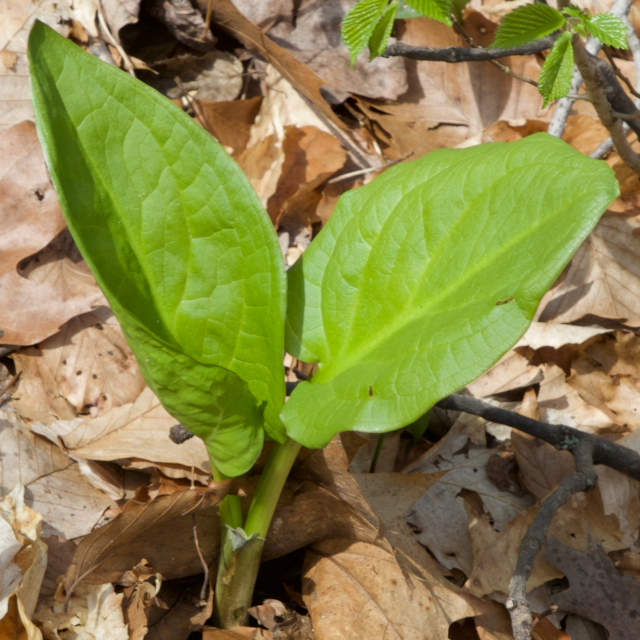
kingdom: Plantae
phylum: Tracheophyta
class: Liliopsida
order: Alismatales
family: Araceae
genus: Symplocarpus
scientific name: Symplocarpus foetidus
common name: Eastern skunk cabbage
